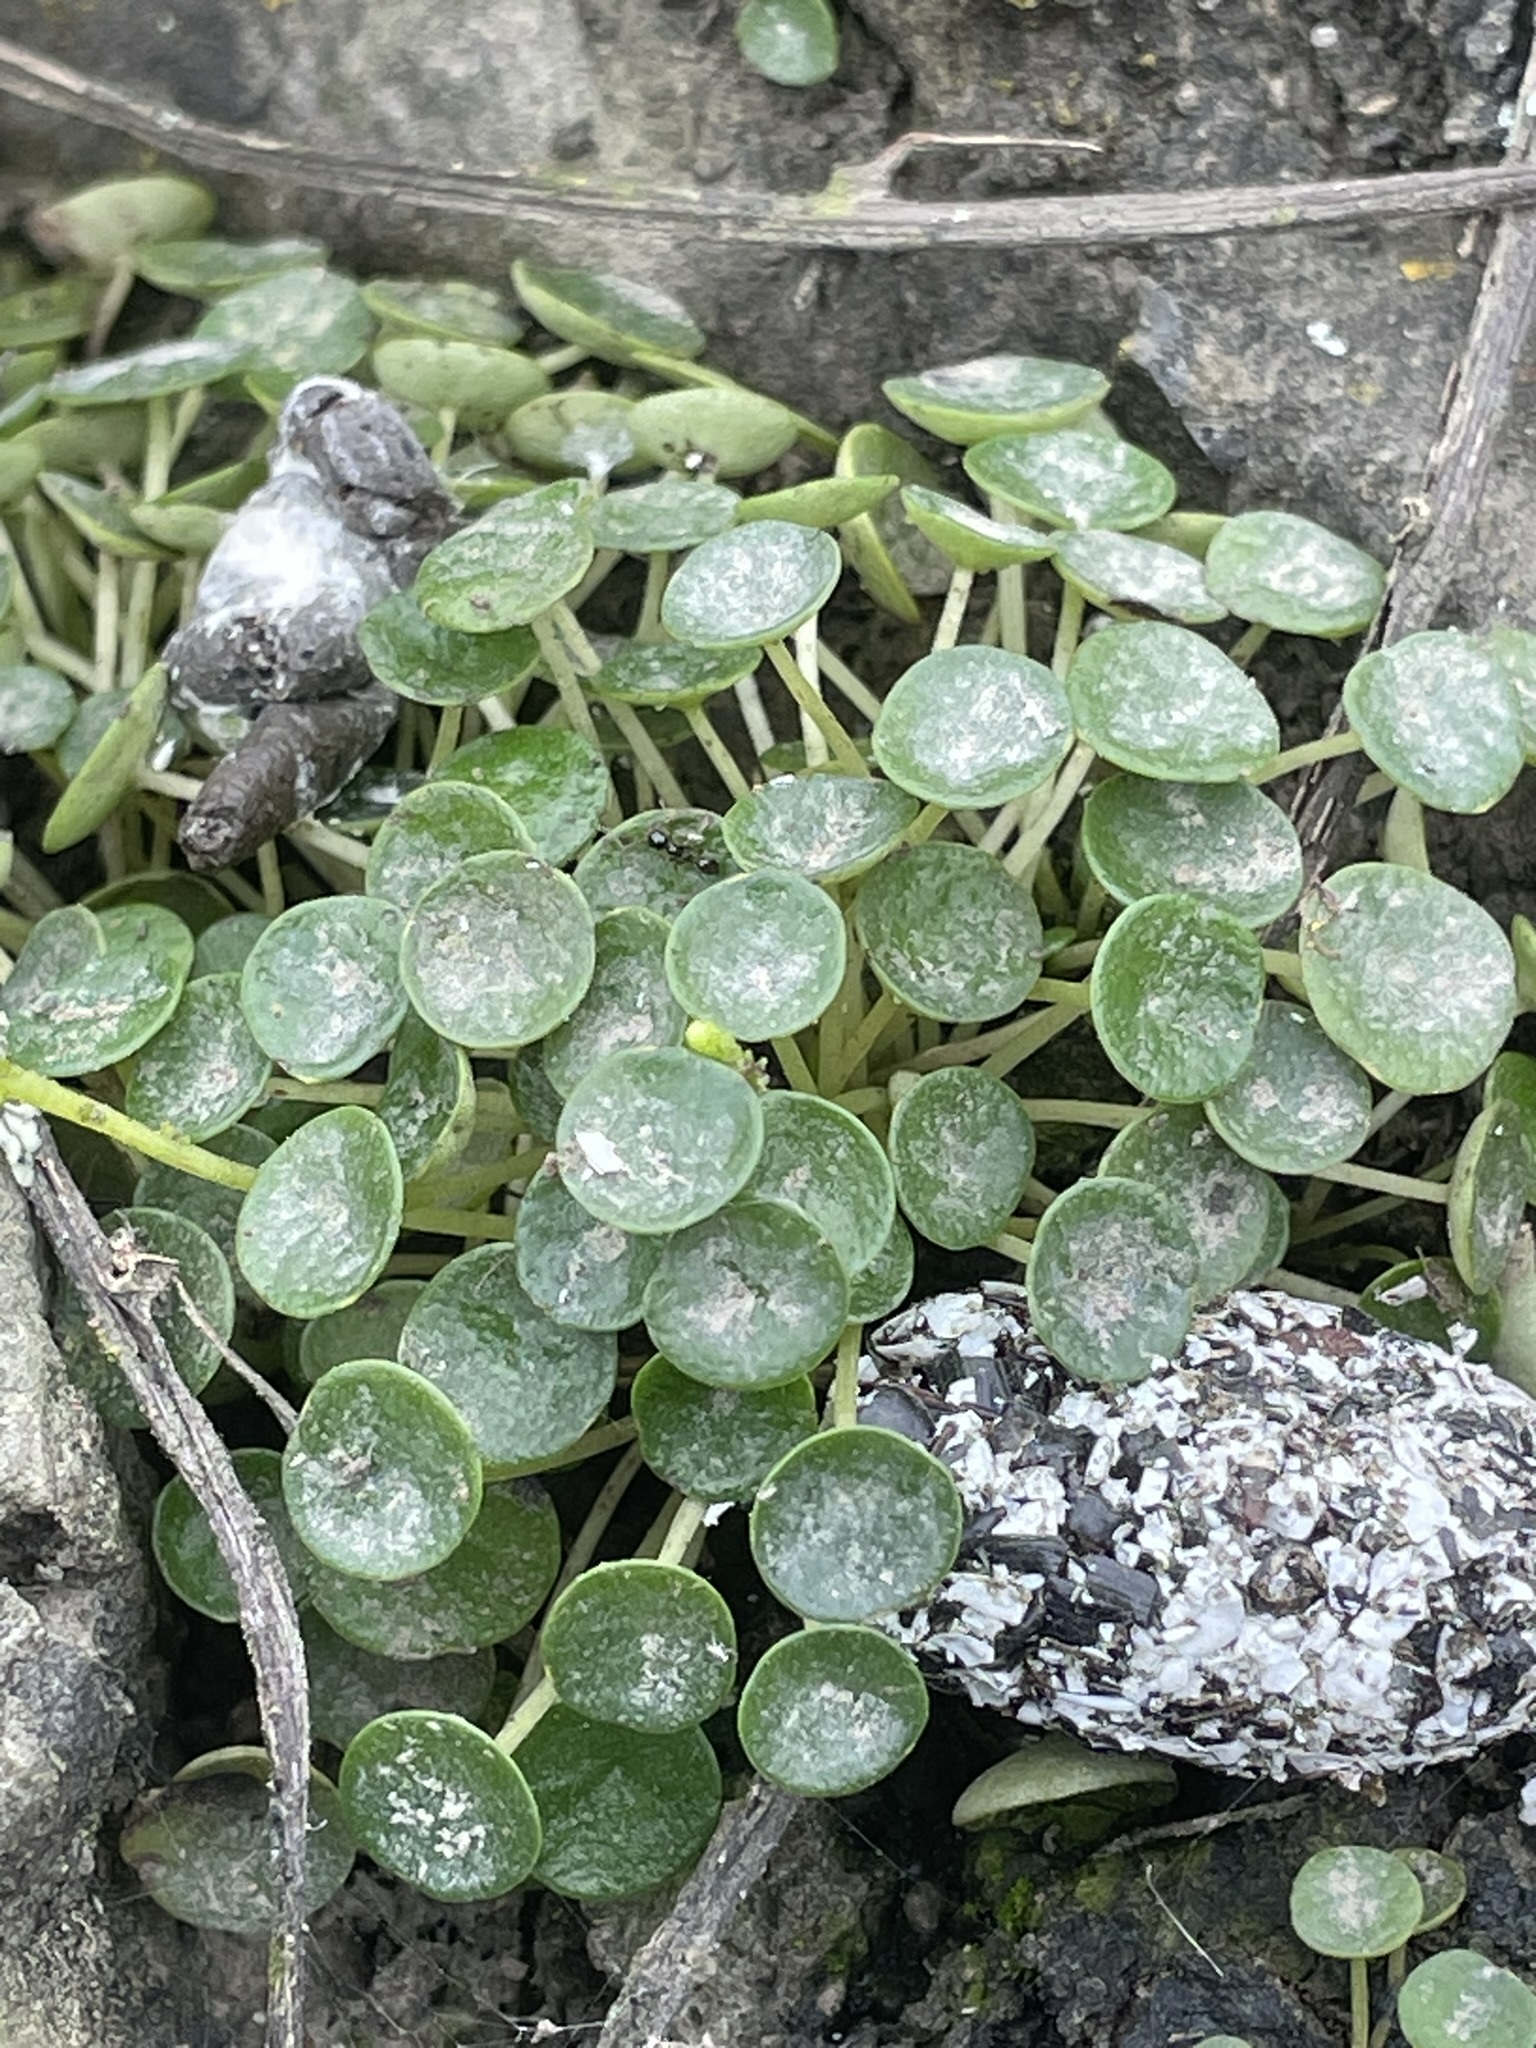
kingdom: Plantae
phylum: Tracheophyta
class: Magnoliopsida
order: Piperales
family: Piperaceae
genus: Peperomia
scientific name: Peperomia umbilicata
